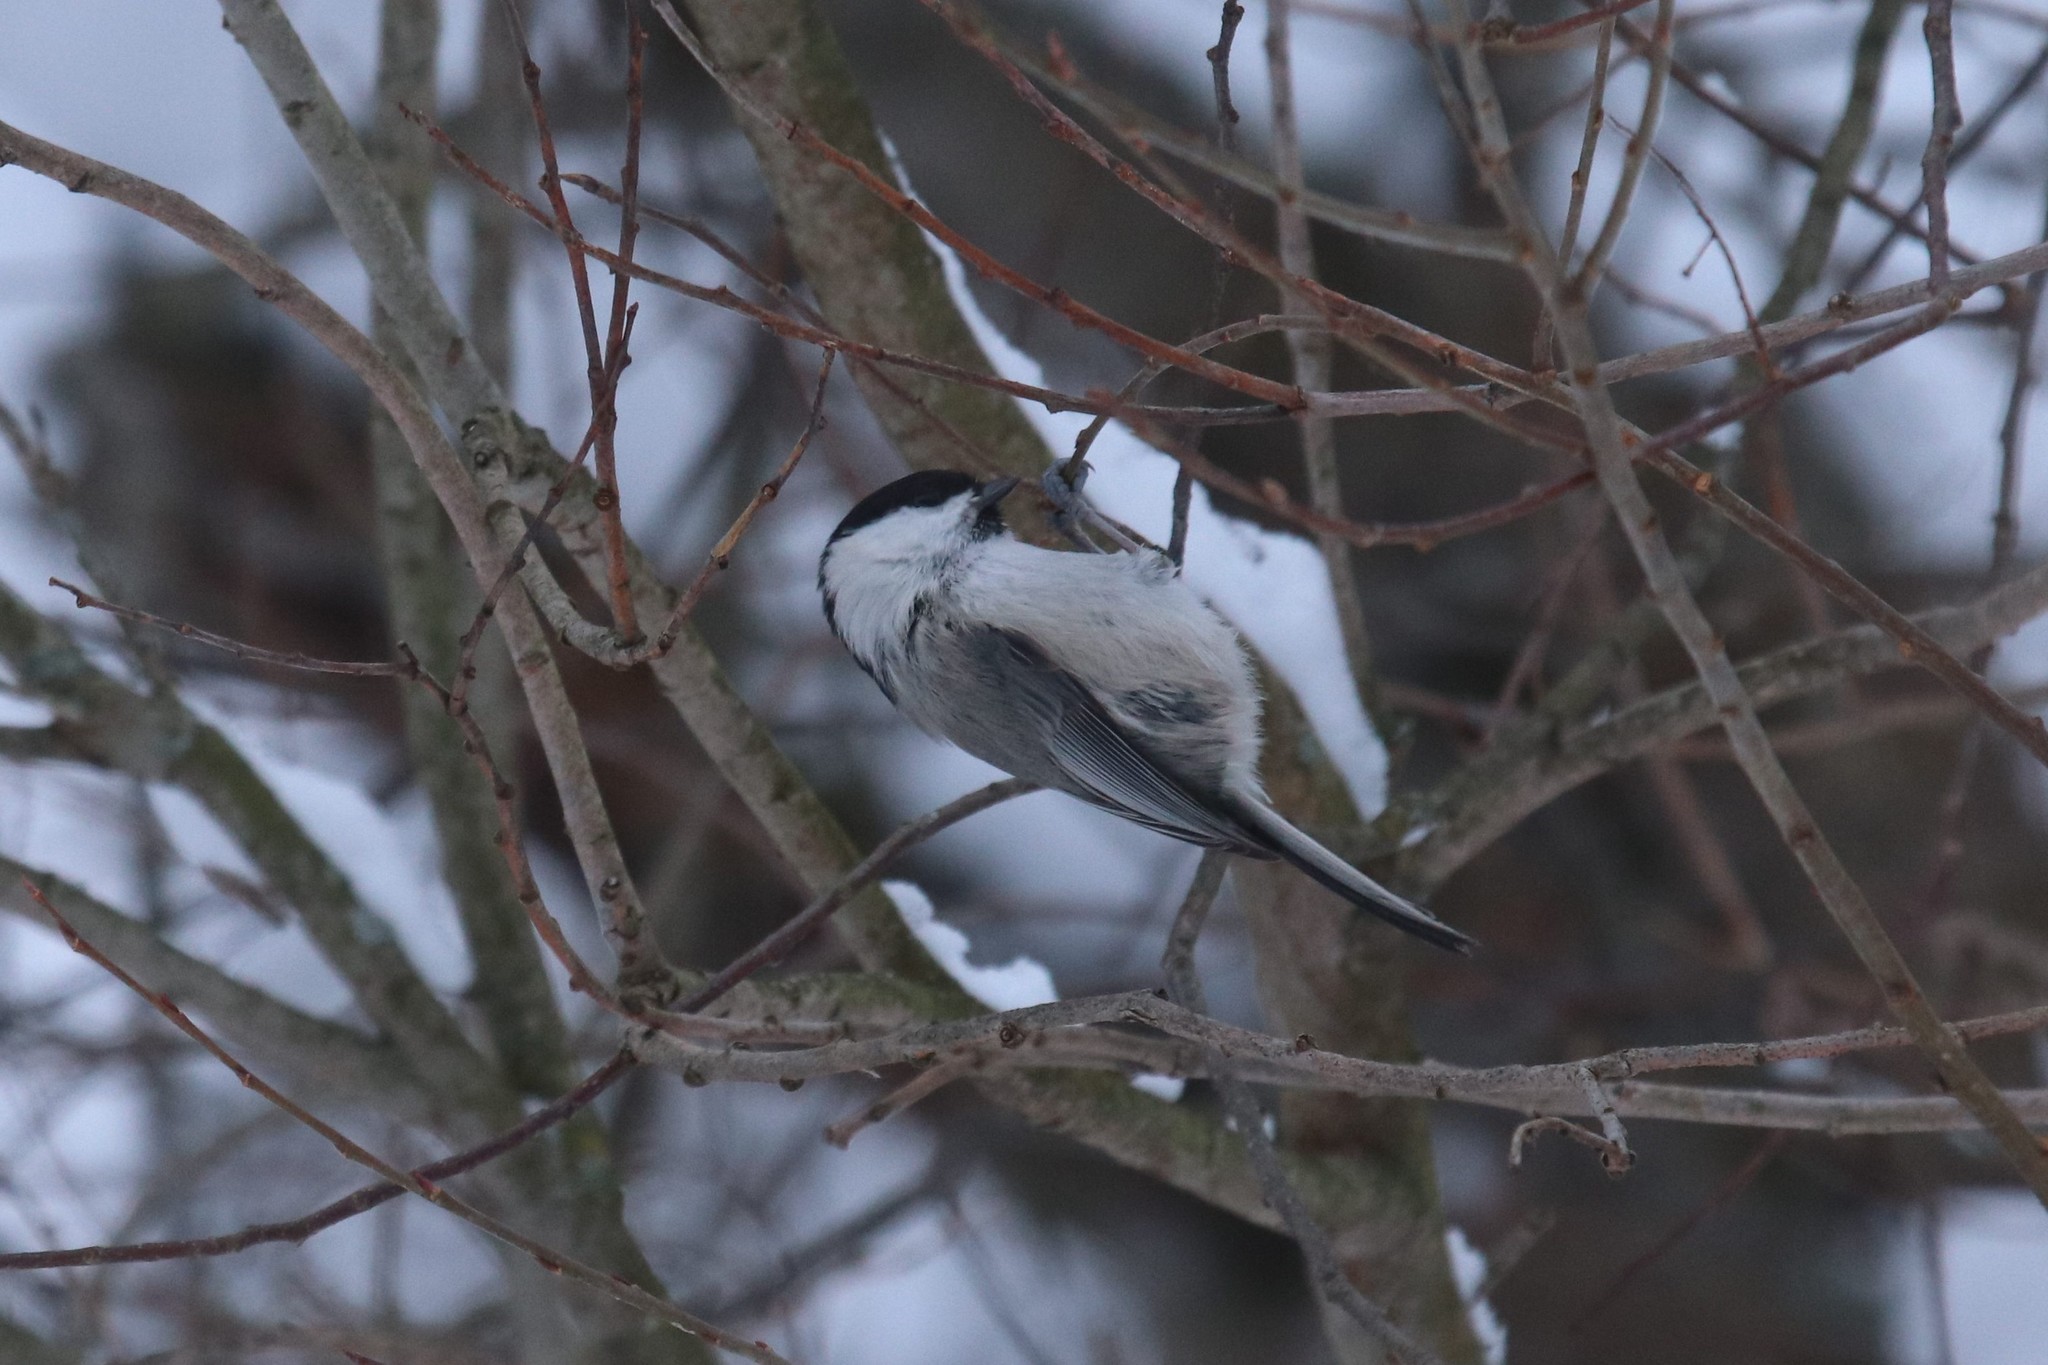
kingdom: Animalia
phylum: Chordata
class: Aves
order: Passeriformes
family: Paridae
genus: Poecile
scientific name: Poecile montanus
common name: Willow tit
